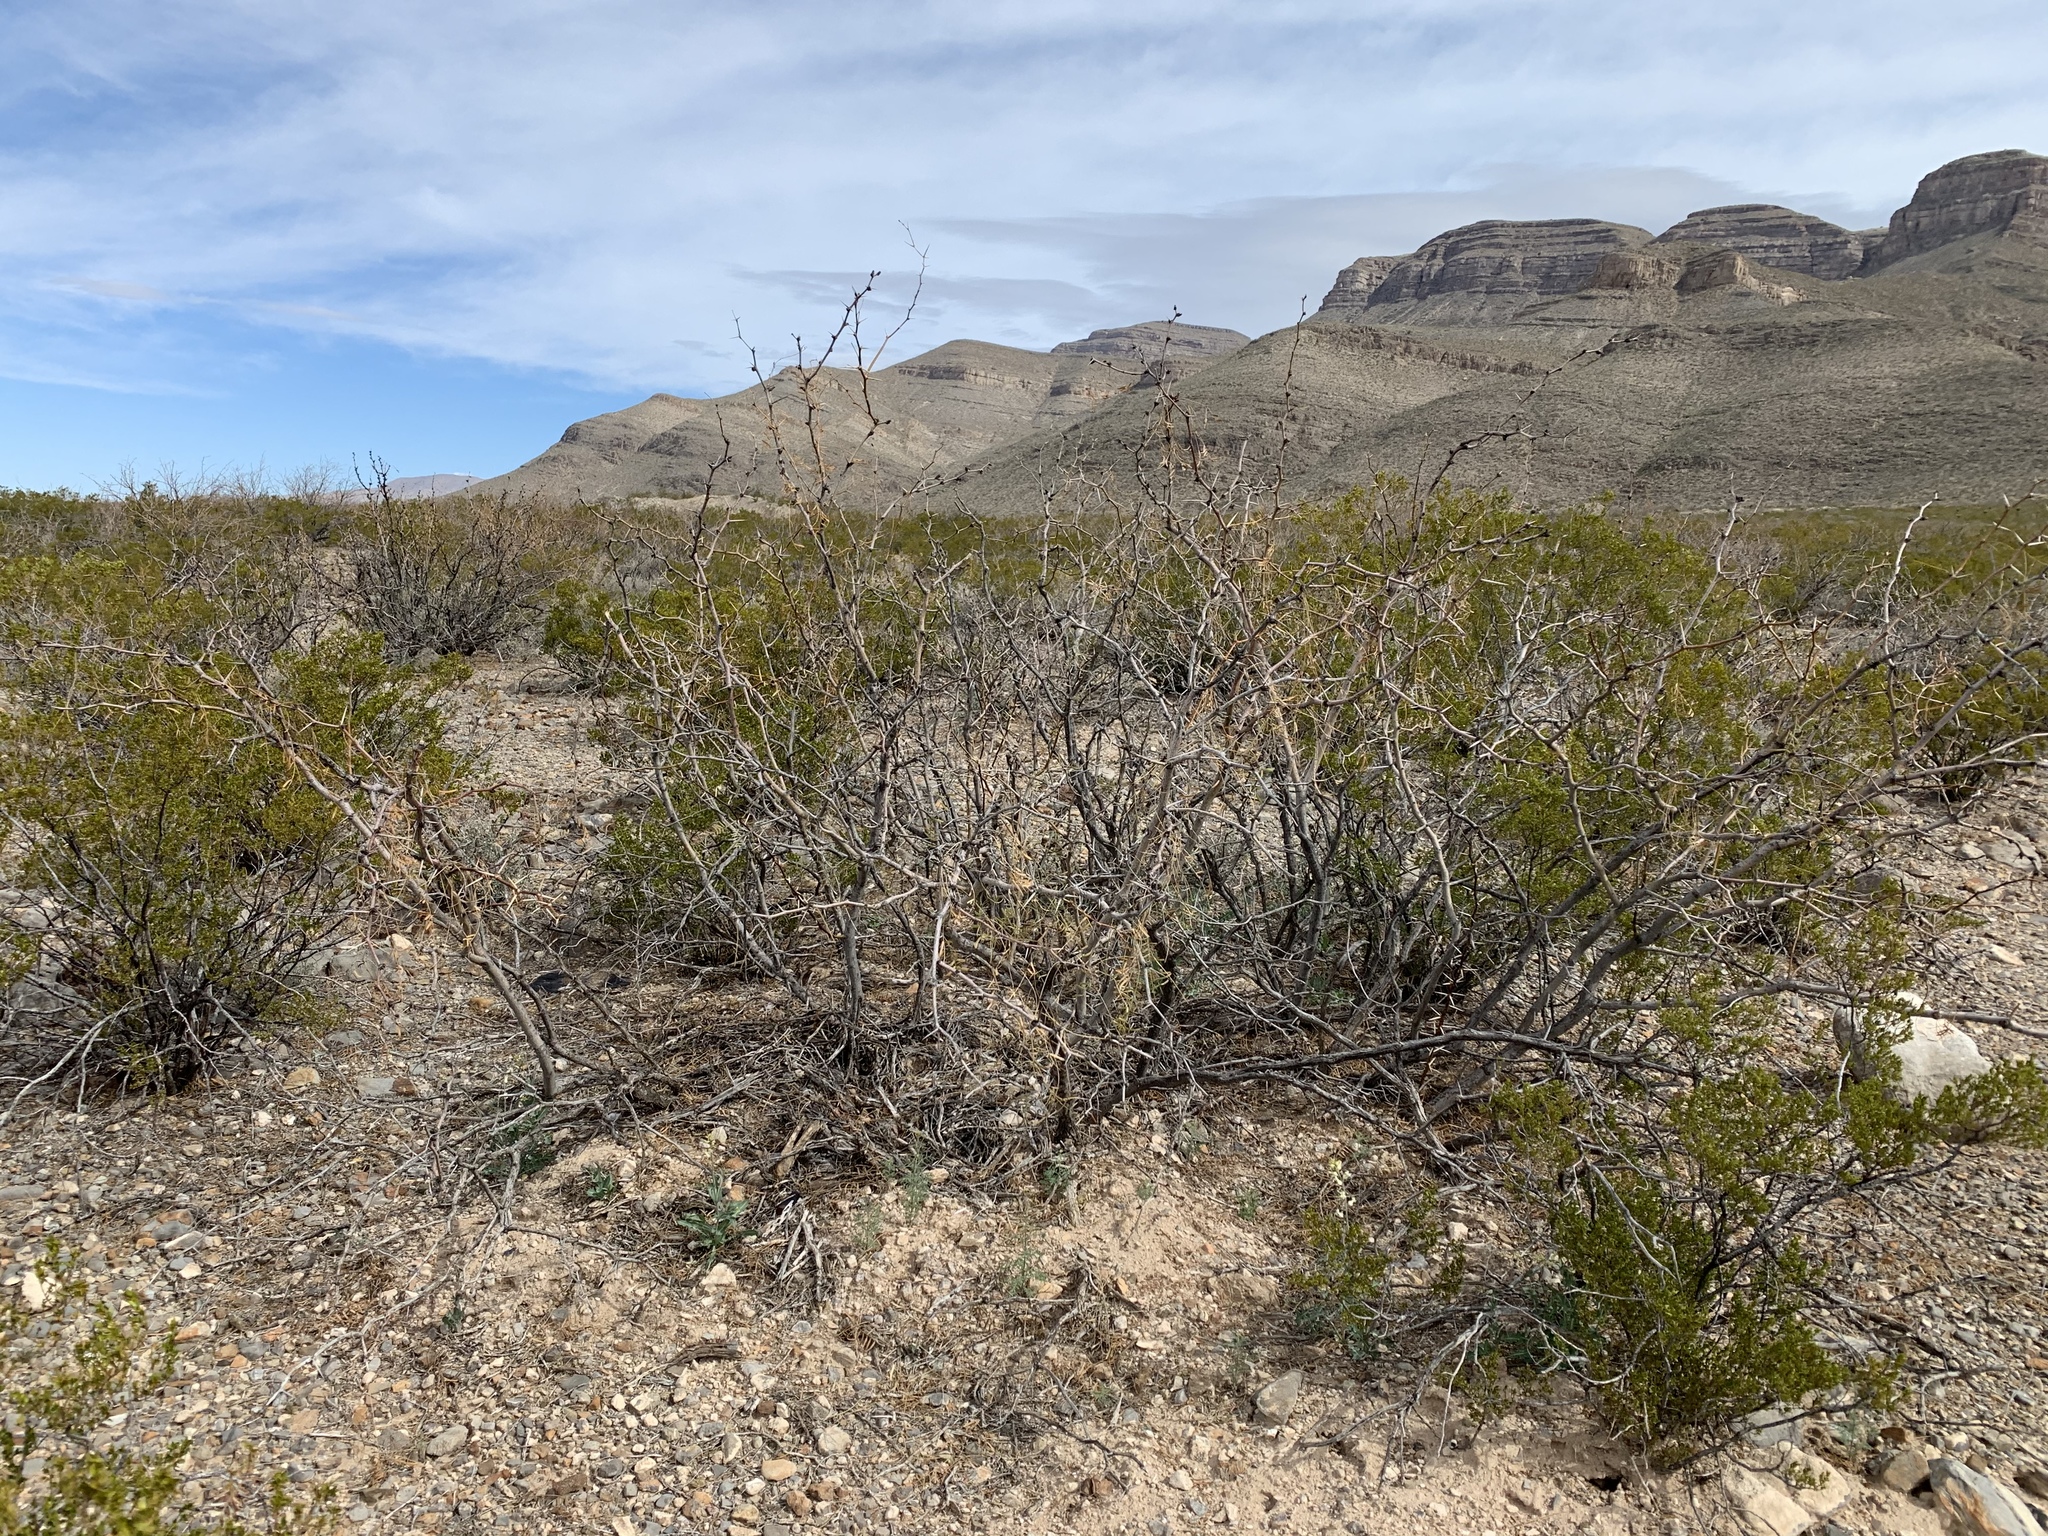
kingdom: Plantae
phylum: Tracheophyta
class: Magnoliopsida
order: Fabales
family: Fabaceae
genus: Prosopis
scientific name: Prosopis glandulosa
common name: Honey mesquite
